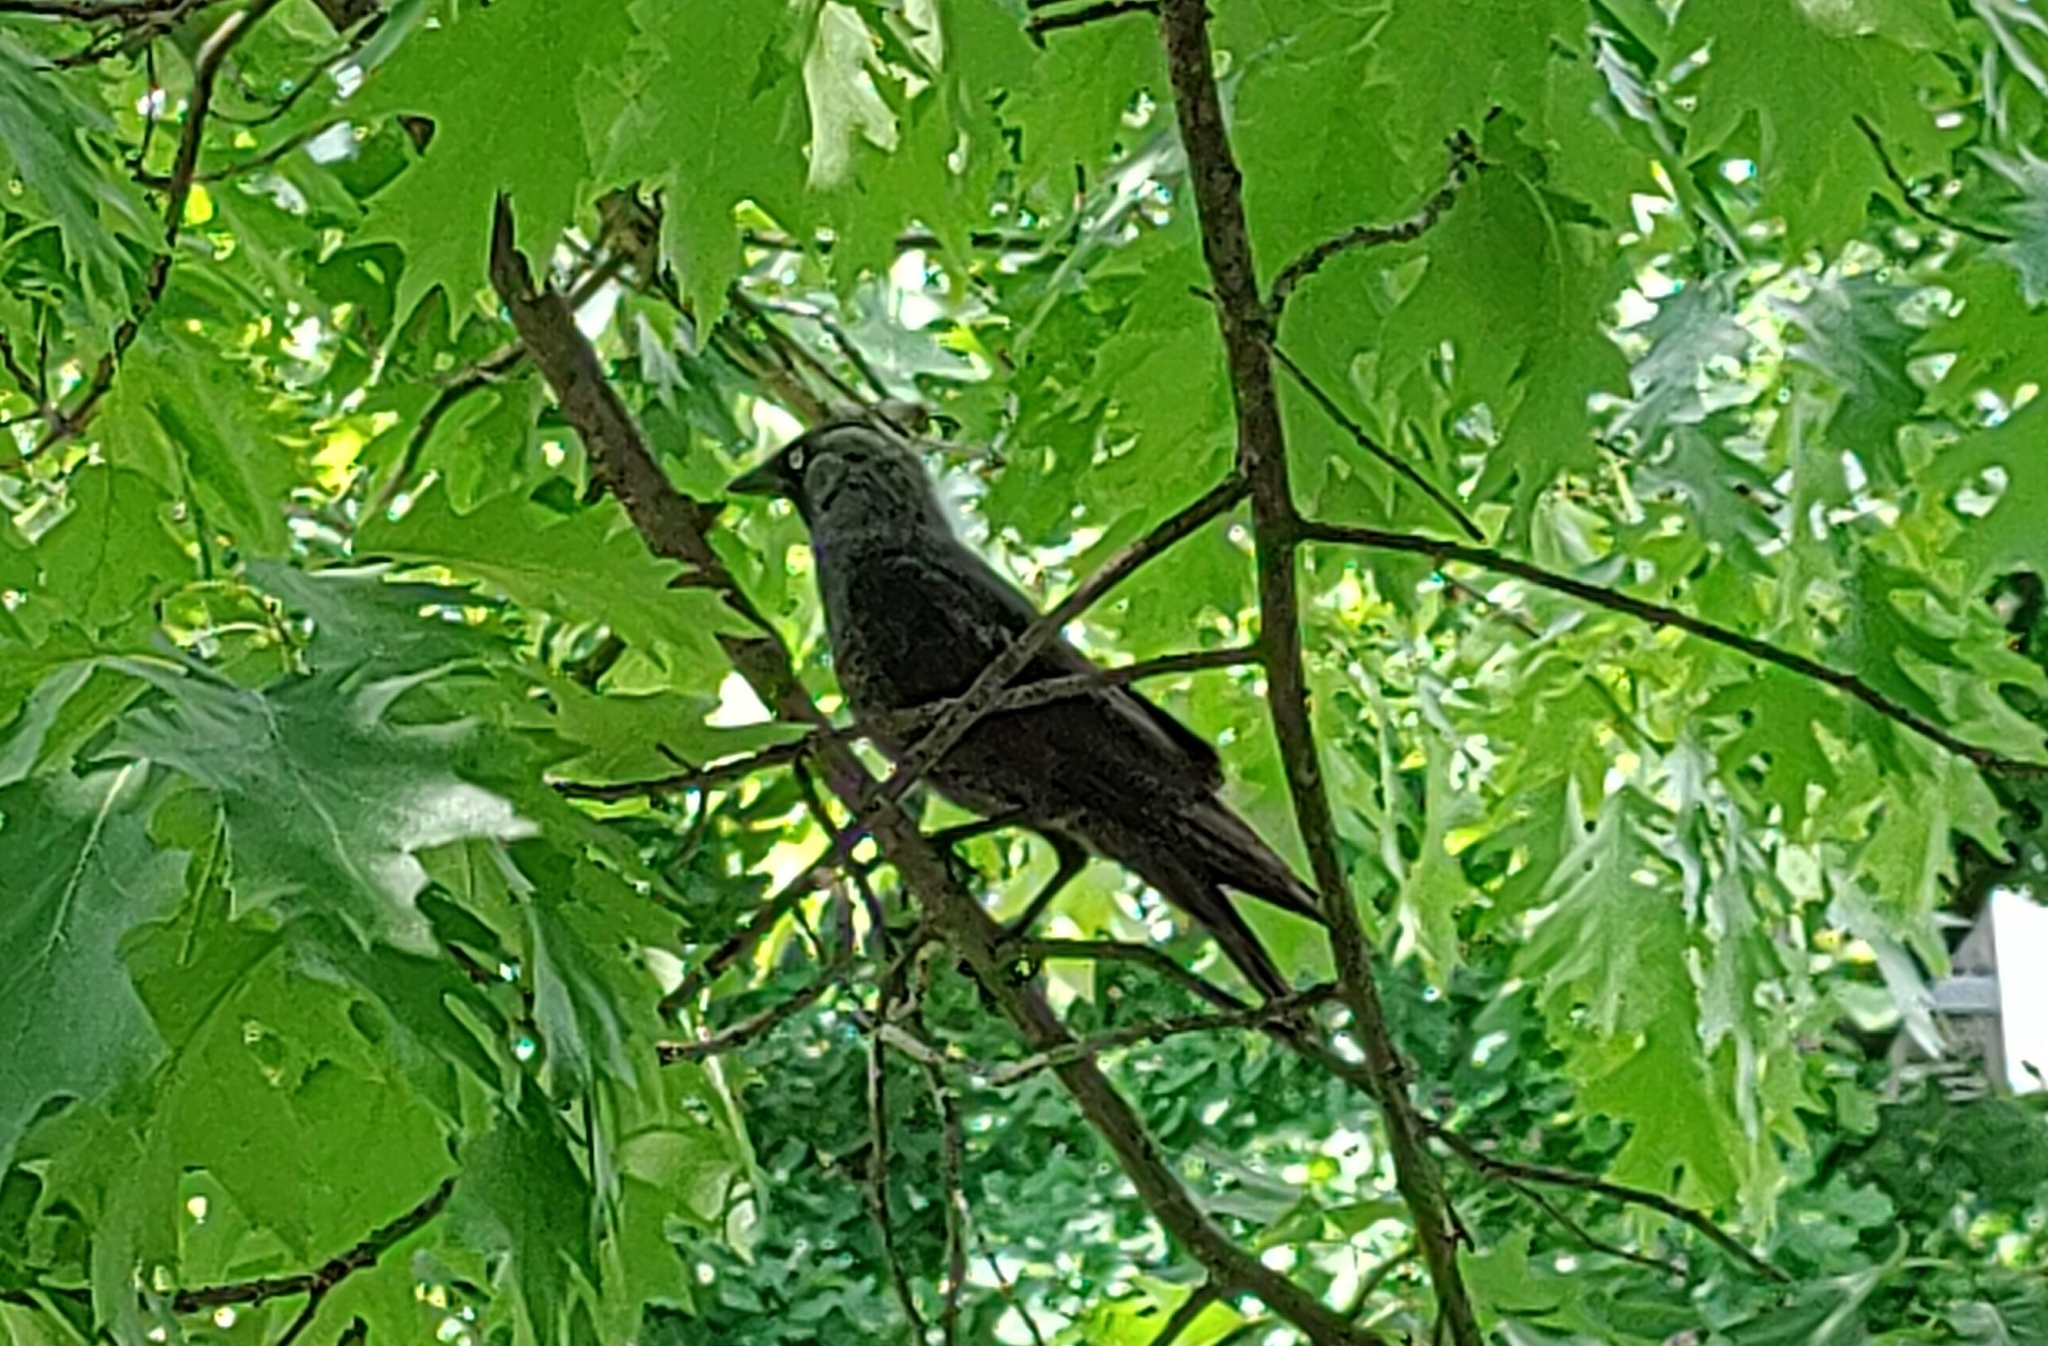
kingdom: Animalia
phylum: Chordata
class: Aves
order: Passeriformes
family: Corvidae
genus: Coloeus
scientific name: Coloeus monedula
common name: Western jackdaw
